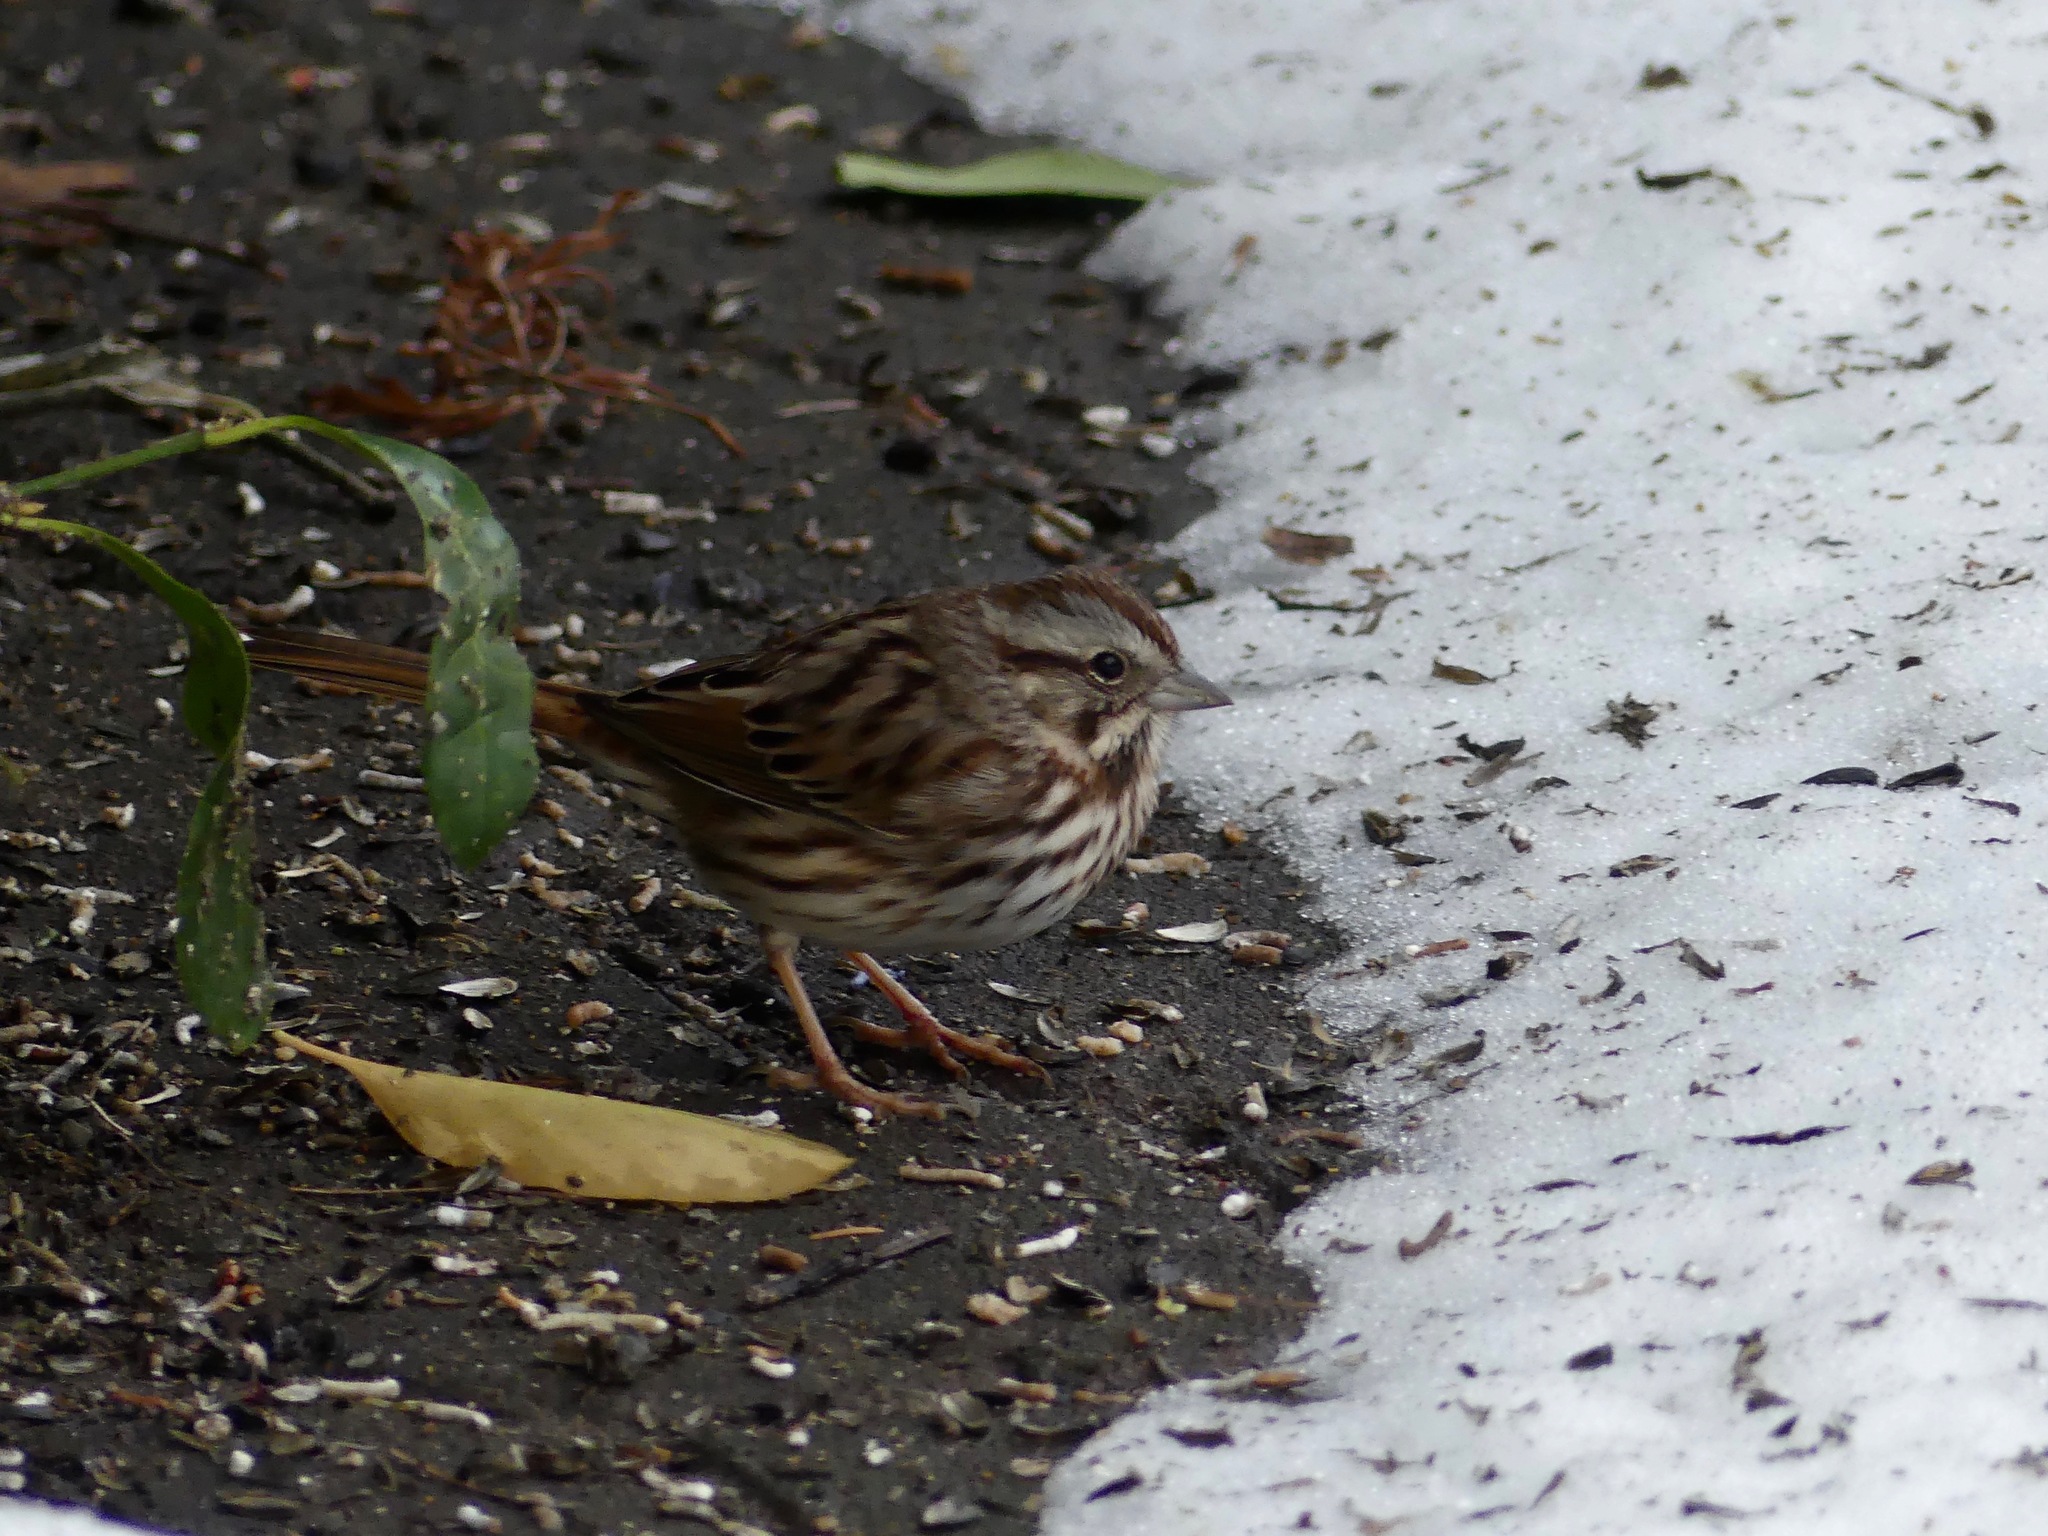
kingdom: Animalia
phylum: Chordata
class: Aves
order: Passeriformes
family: Passerellidae
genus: Melospiza
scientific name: Melospiza melodia
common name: Song sparrow
